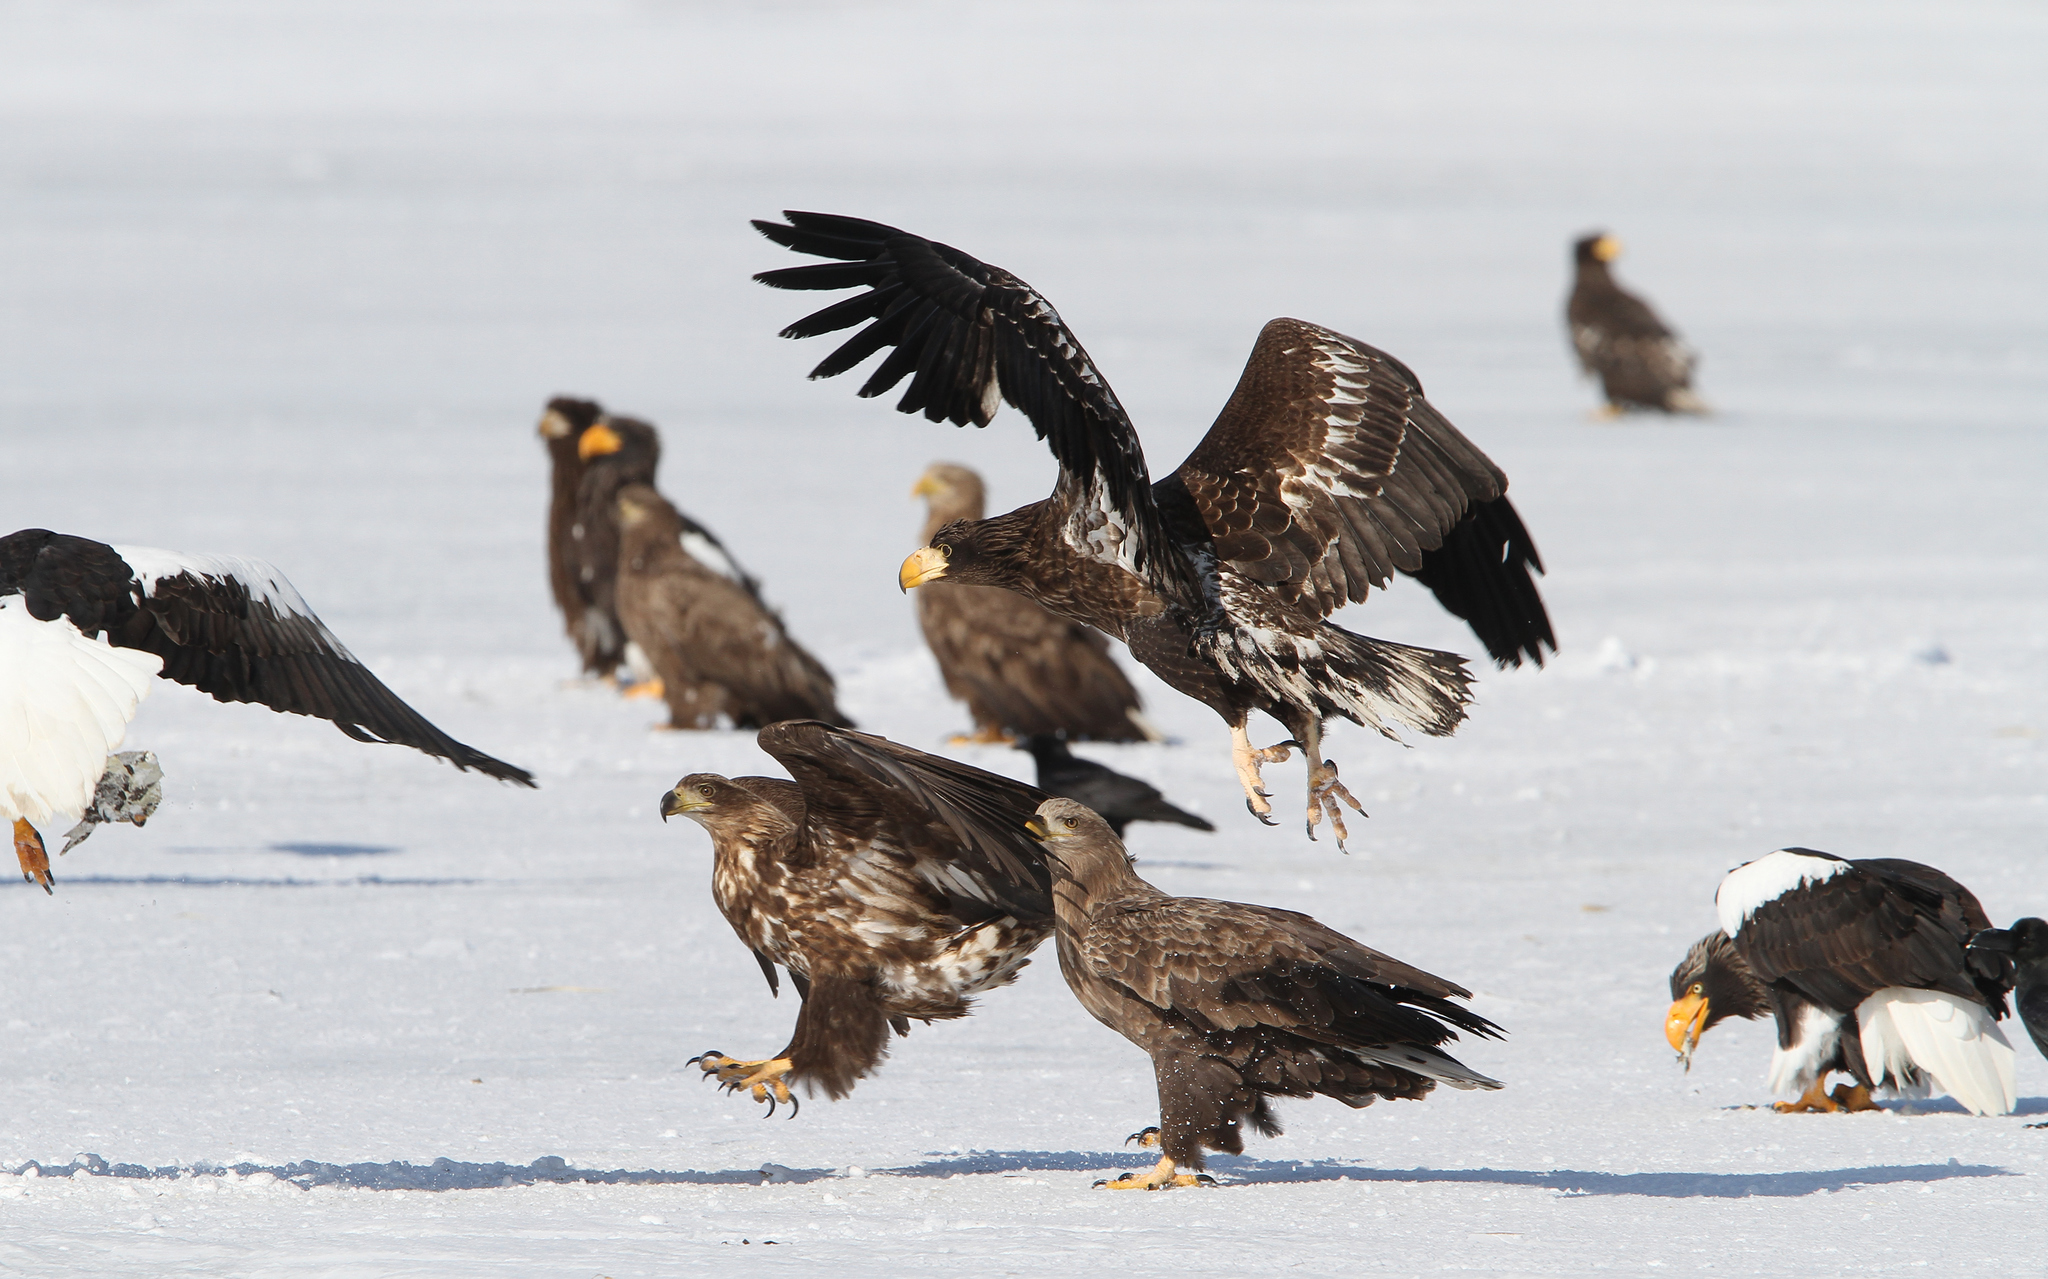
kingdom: Animalia
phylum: Chordata
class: Aves
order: Accipitriformes
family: Accipitridae
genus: Haliaeetus
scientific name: Haliaeetus pelagicus
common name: Steller's sea eagle
